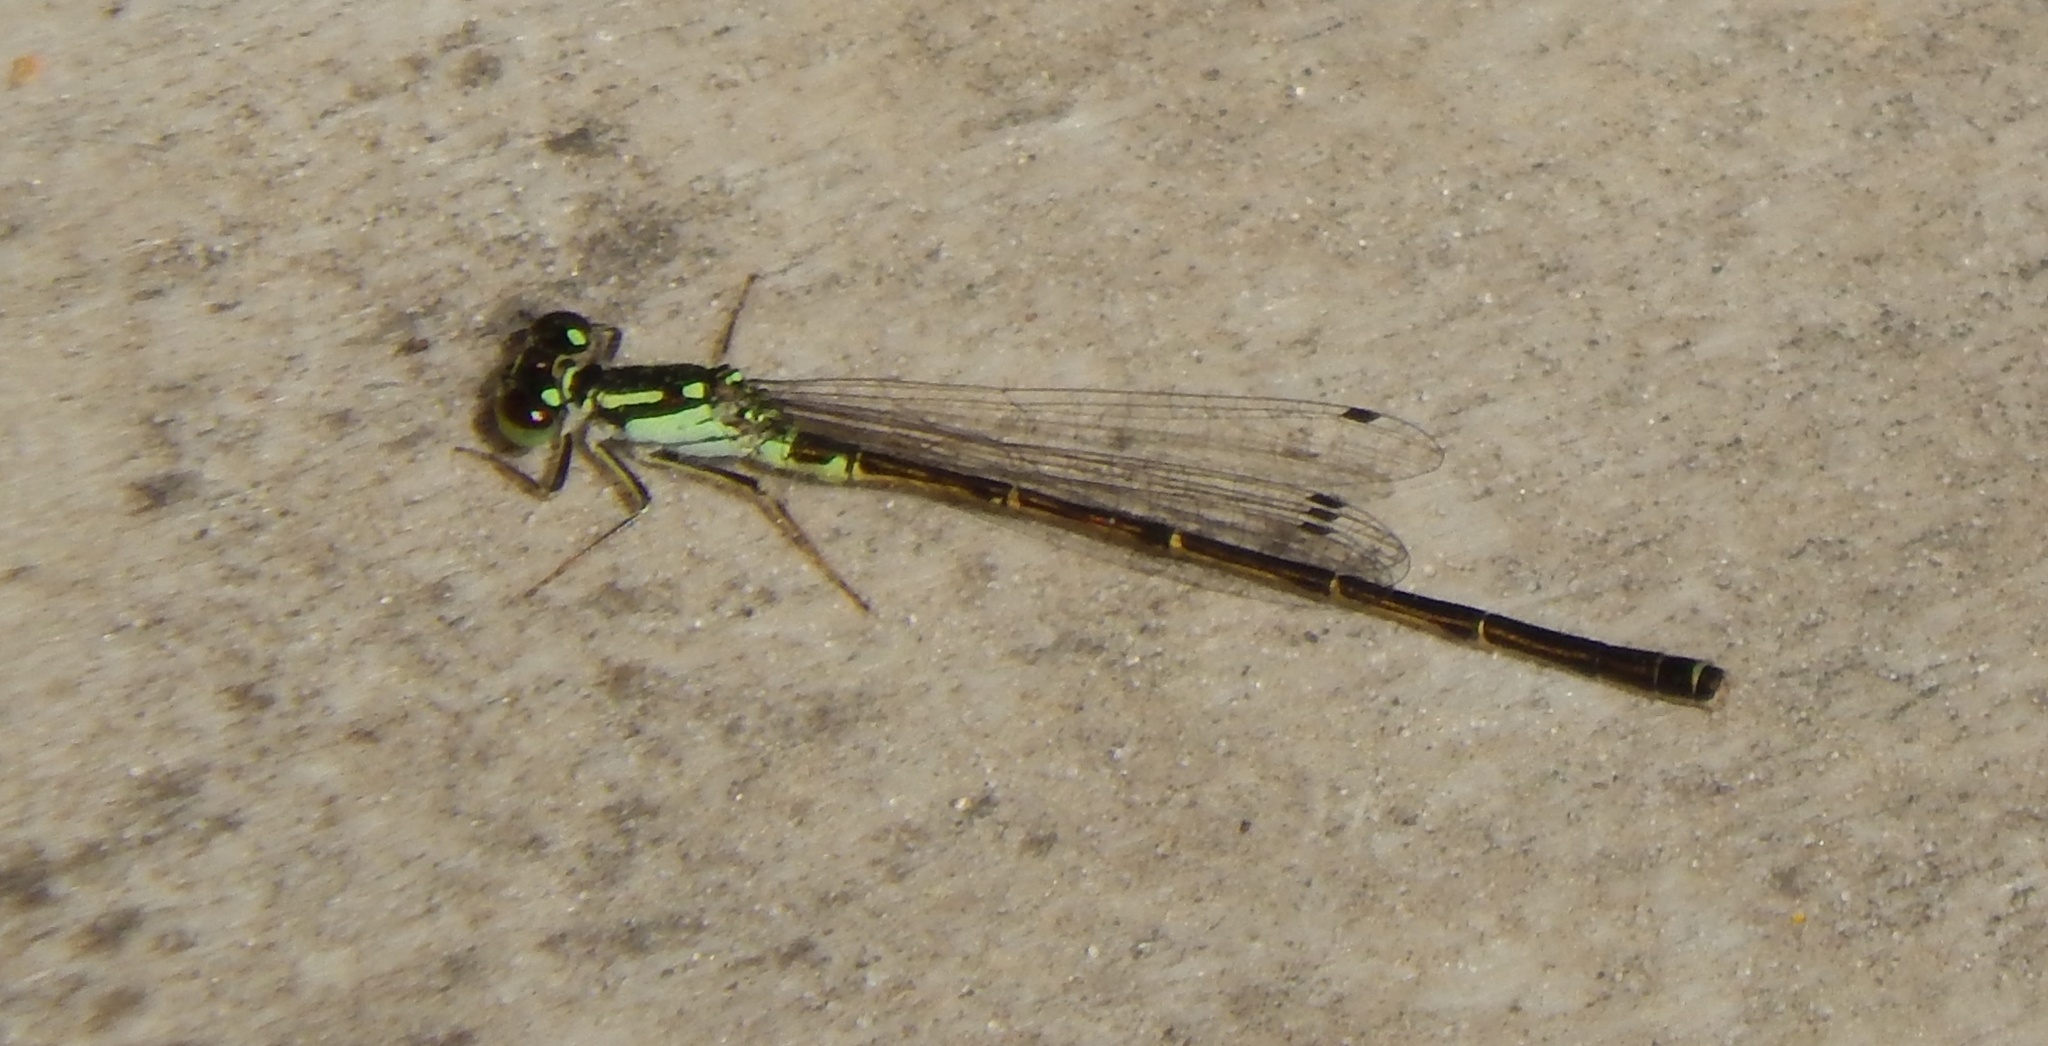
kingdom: Animalia
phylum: Arthropoda
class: Insecta
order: Odonata
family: Coenagrionidae
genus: Ischnura
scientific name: Ischnura posita
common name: Fragile forktail
